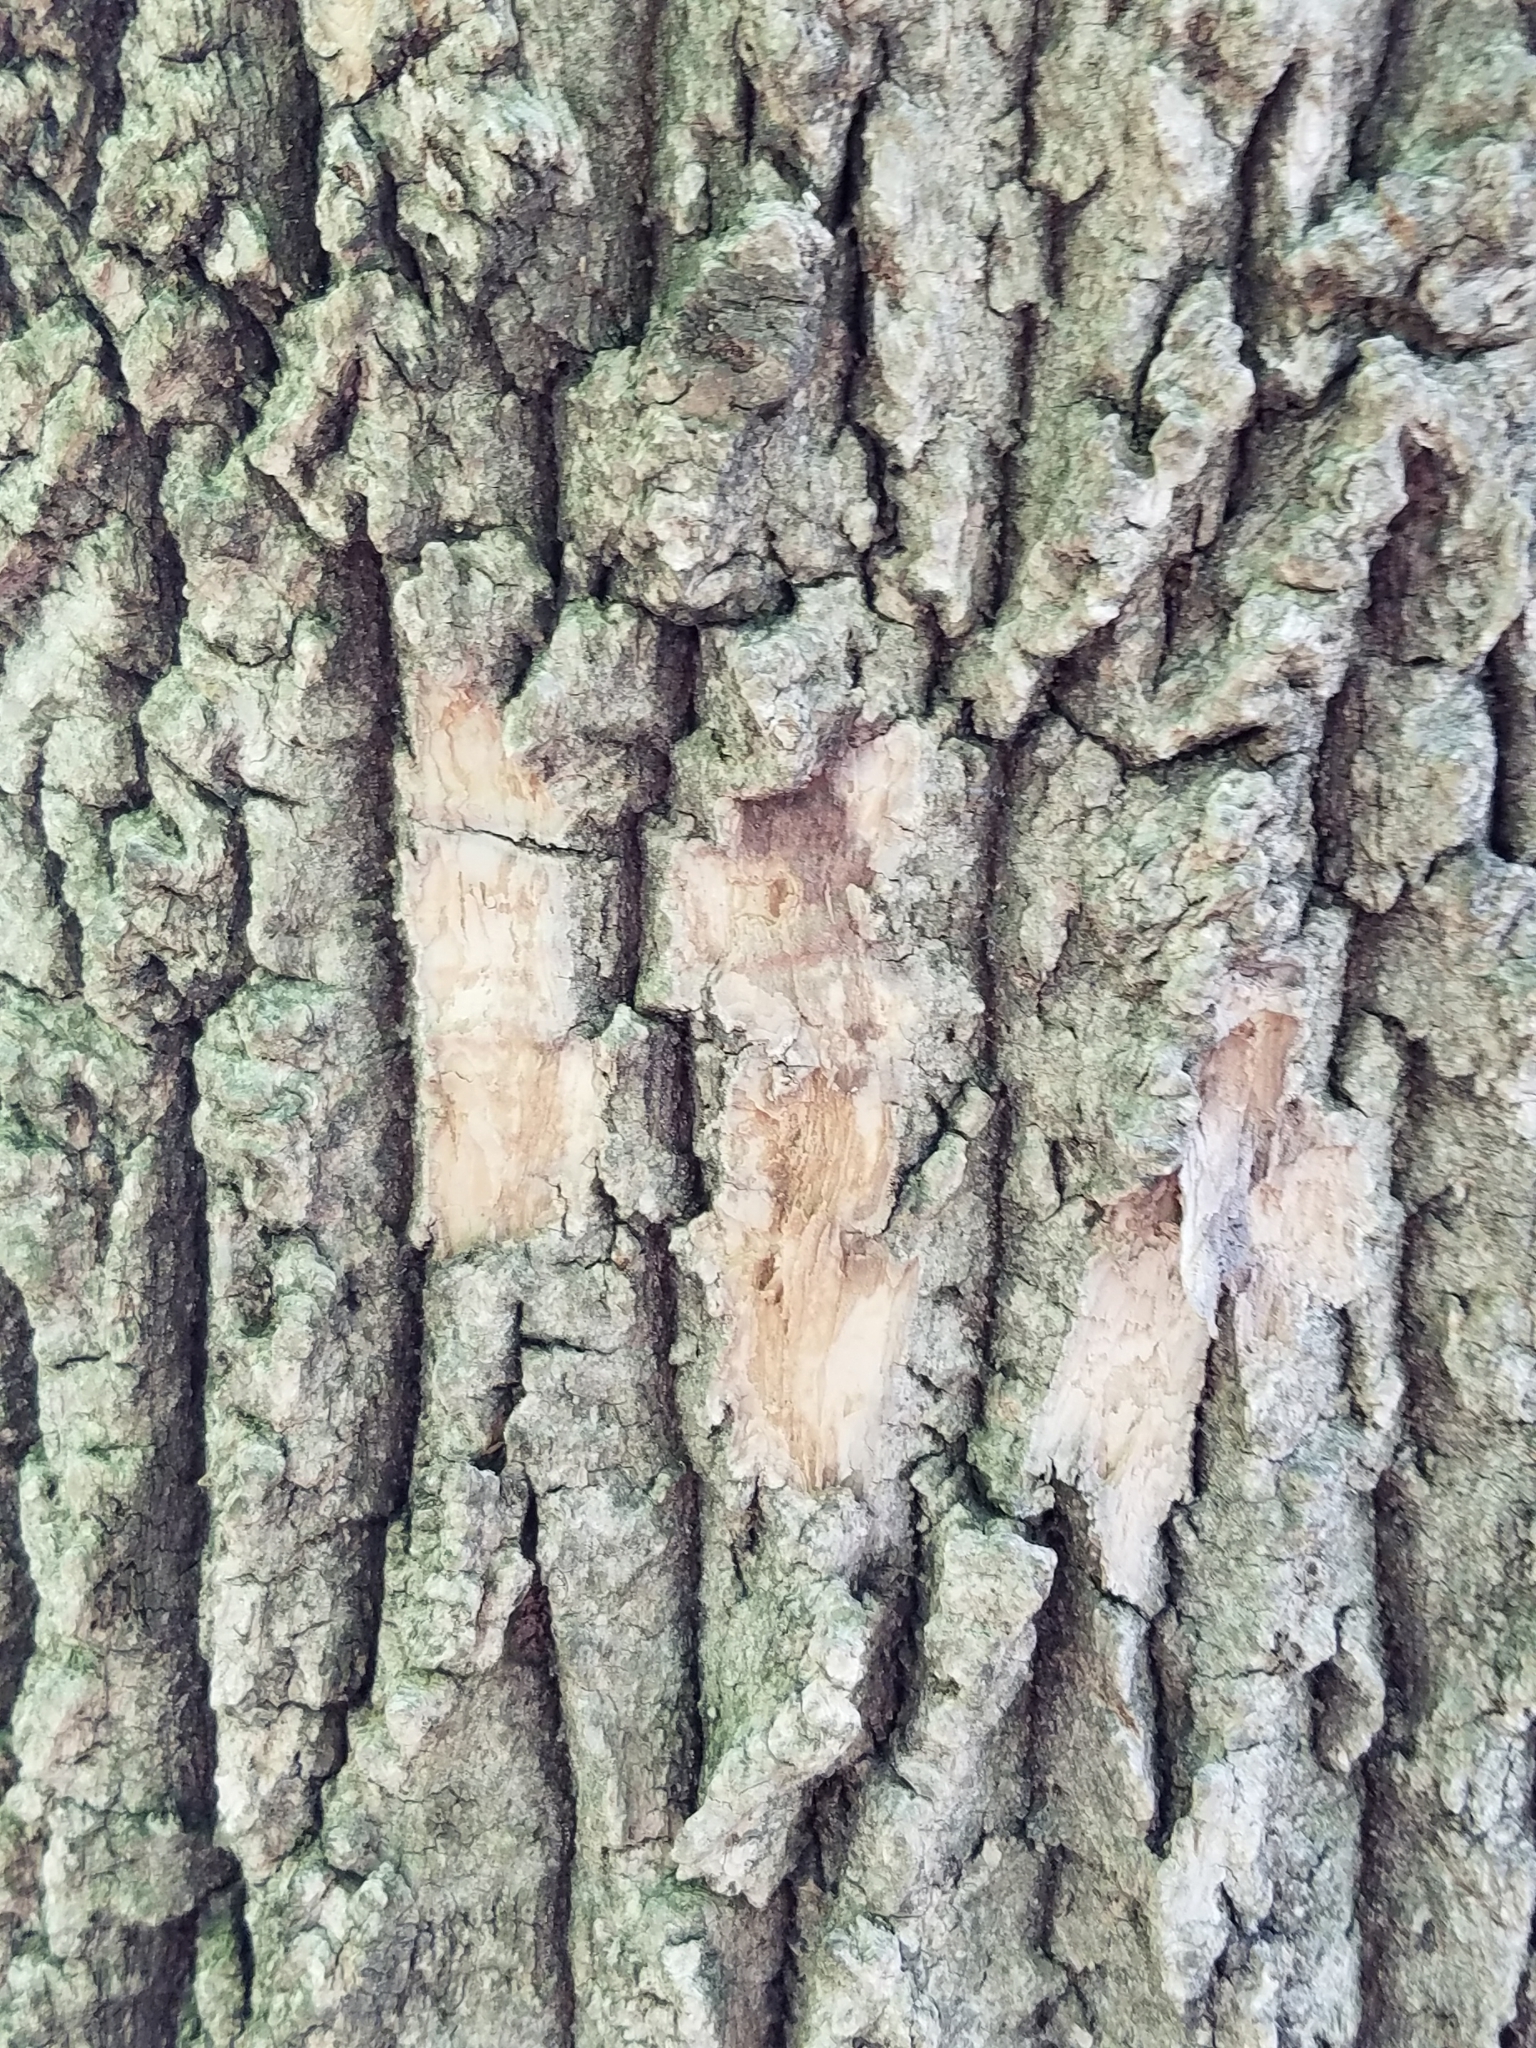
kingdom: Animalia
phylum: Arthropoda
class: Insecta
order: Coleoptera
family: Buprestidae
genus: Agrilus
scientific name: Agrilus planipennis
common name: Emerald ash borer
